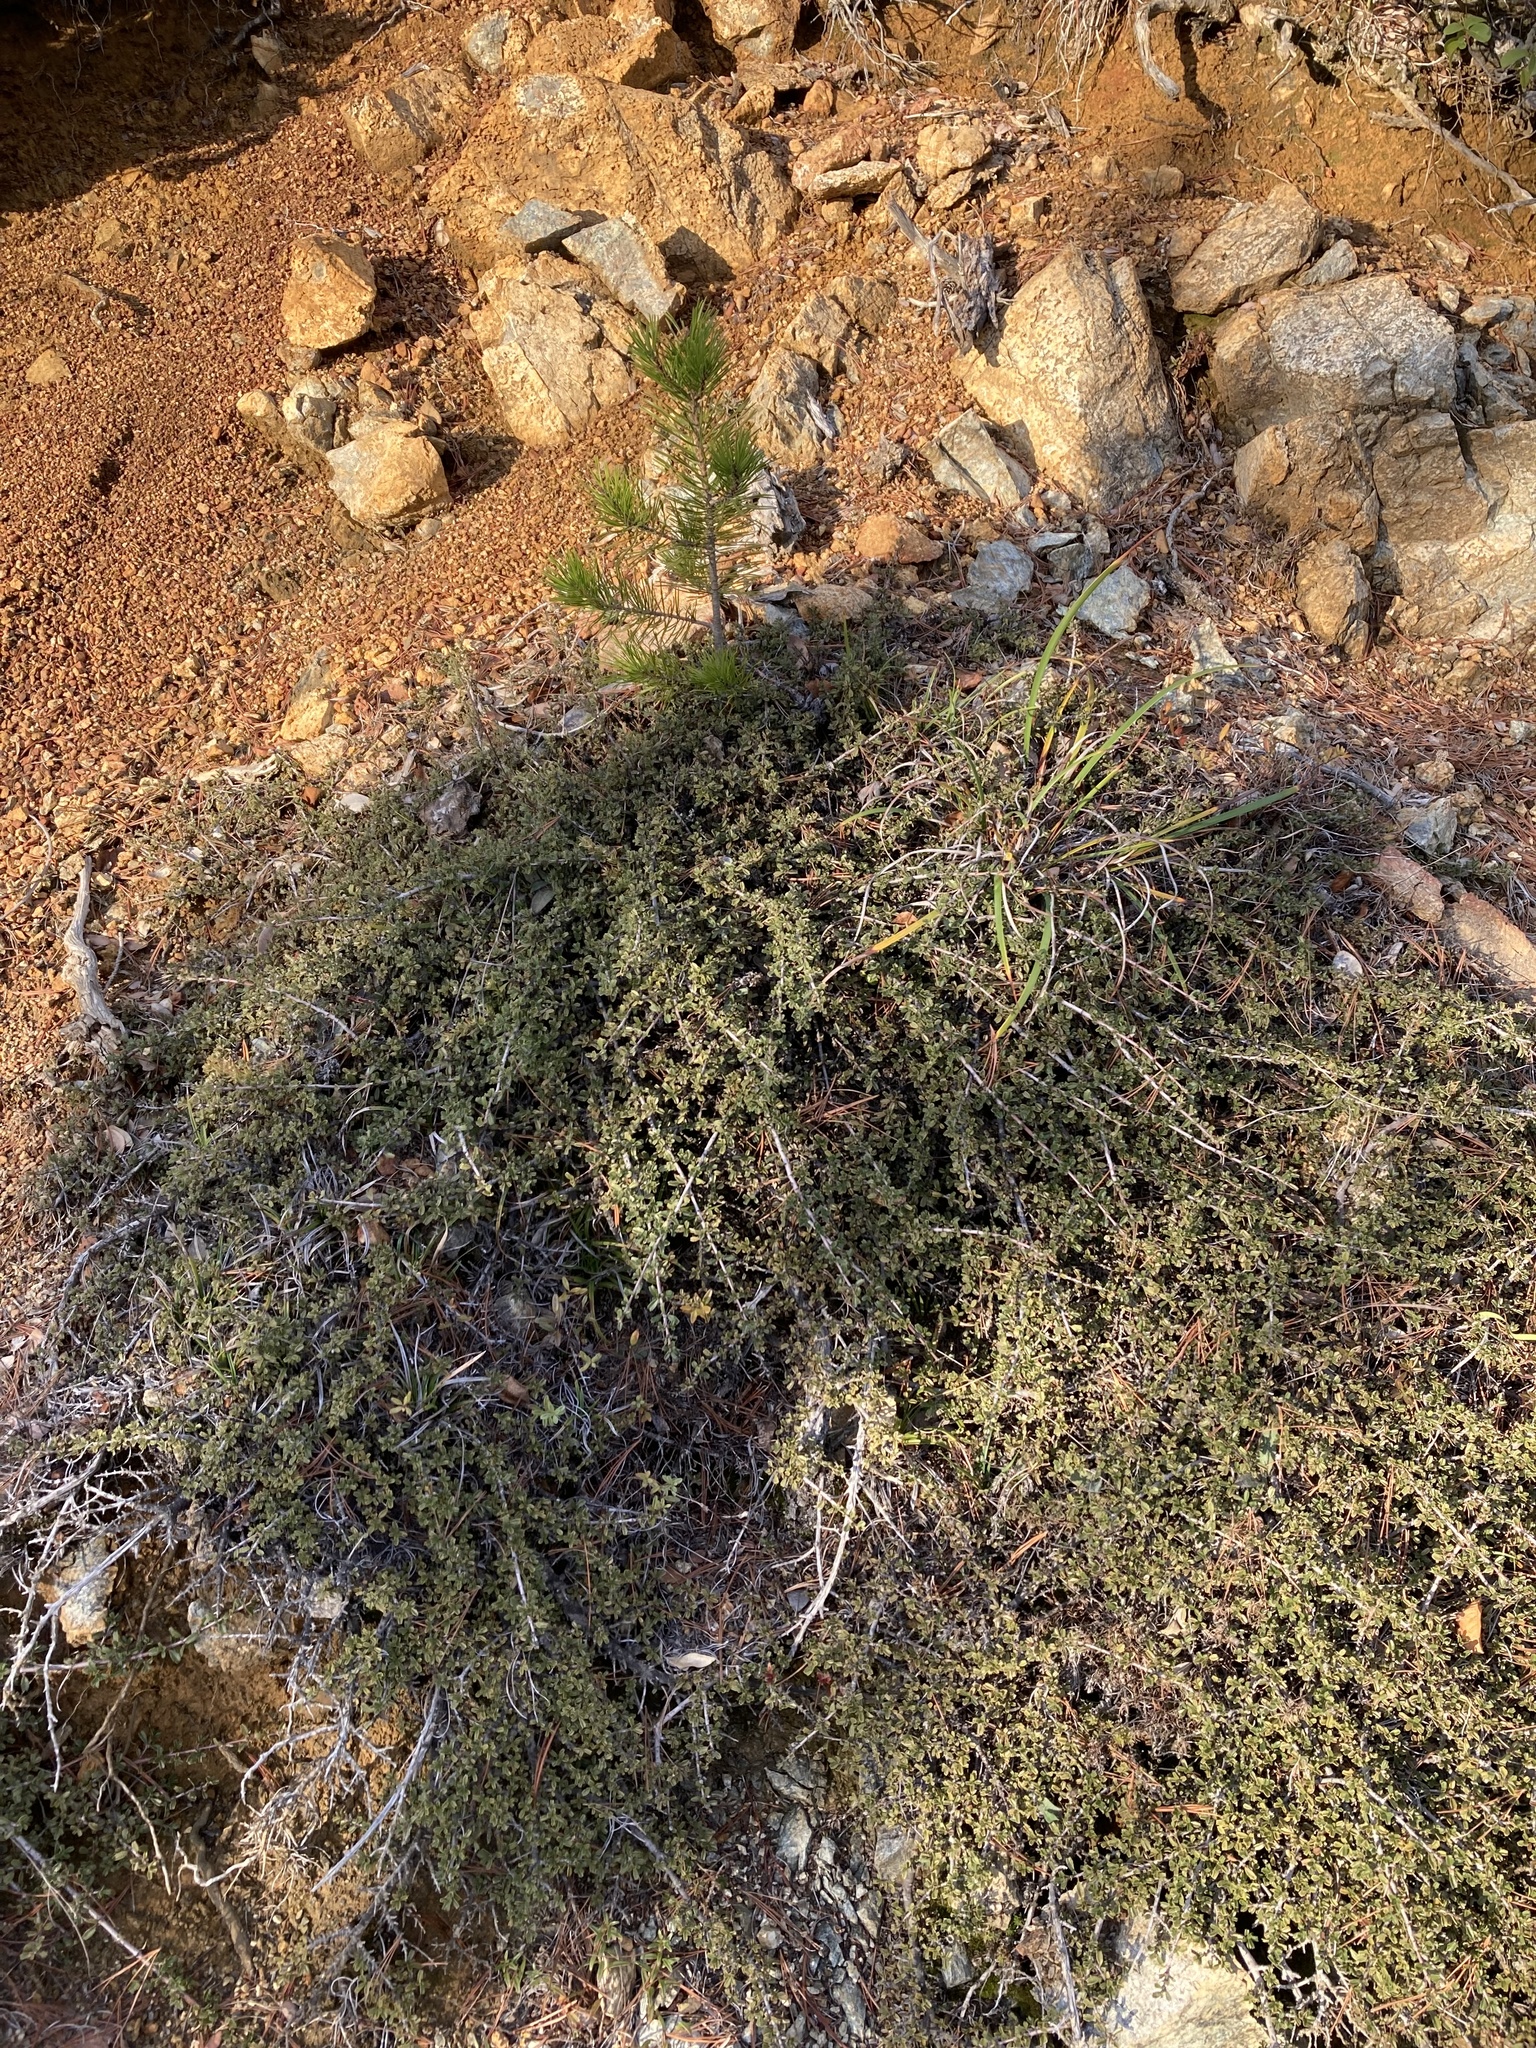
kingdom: Plantae
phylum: Tracheophyta
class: Magnoliopsida
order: Rosales
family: Rhamnaceae
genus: Ceanothus
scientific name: Ceanothus pumilus
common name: Siskiyou-mat
